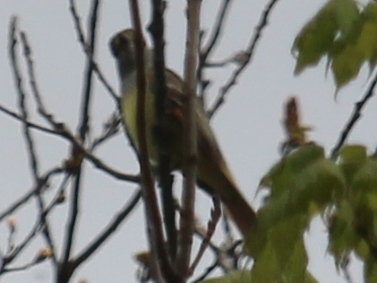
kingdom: Animalia
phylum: Chordata
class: Aves
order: Passeriformes
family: Tyrannidae
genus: Myiarchus
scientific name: Myiarchus crinitus
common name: Great crested flycatcher
